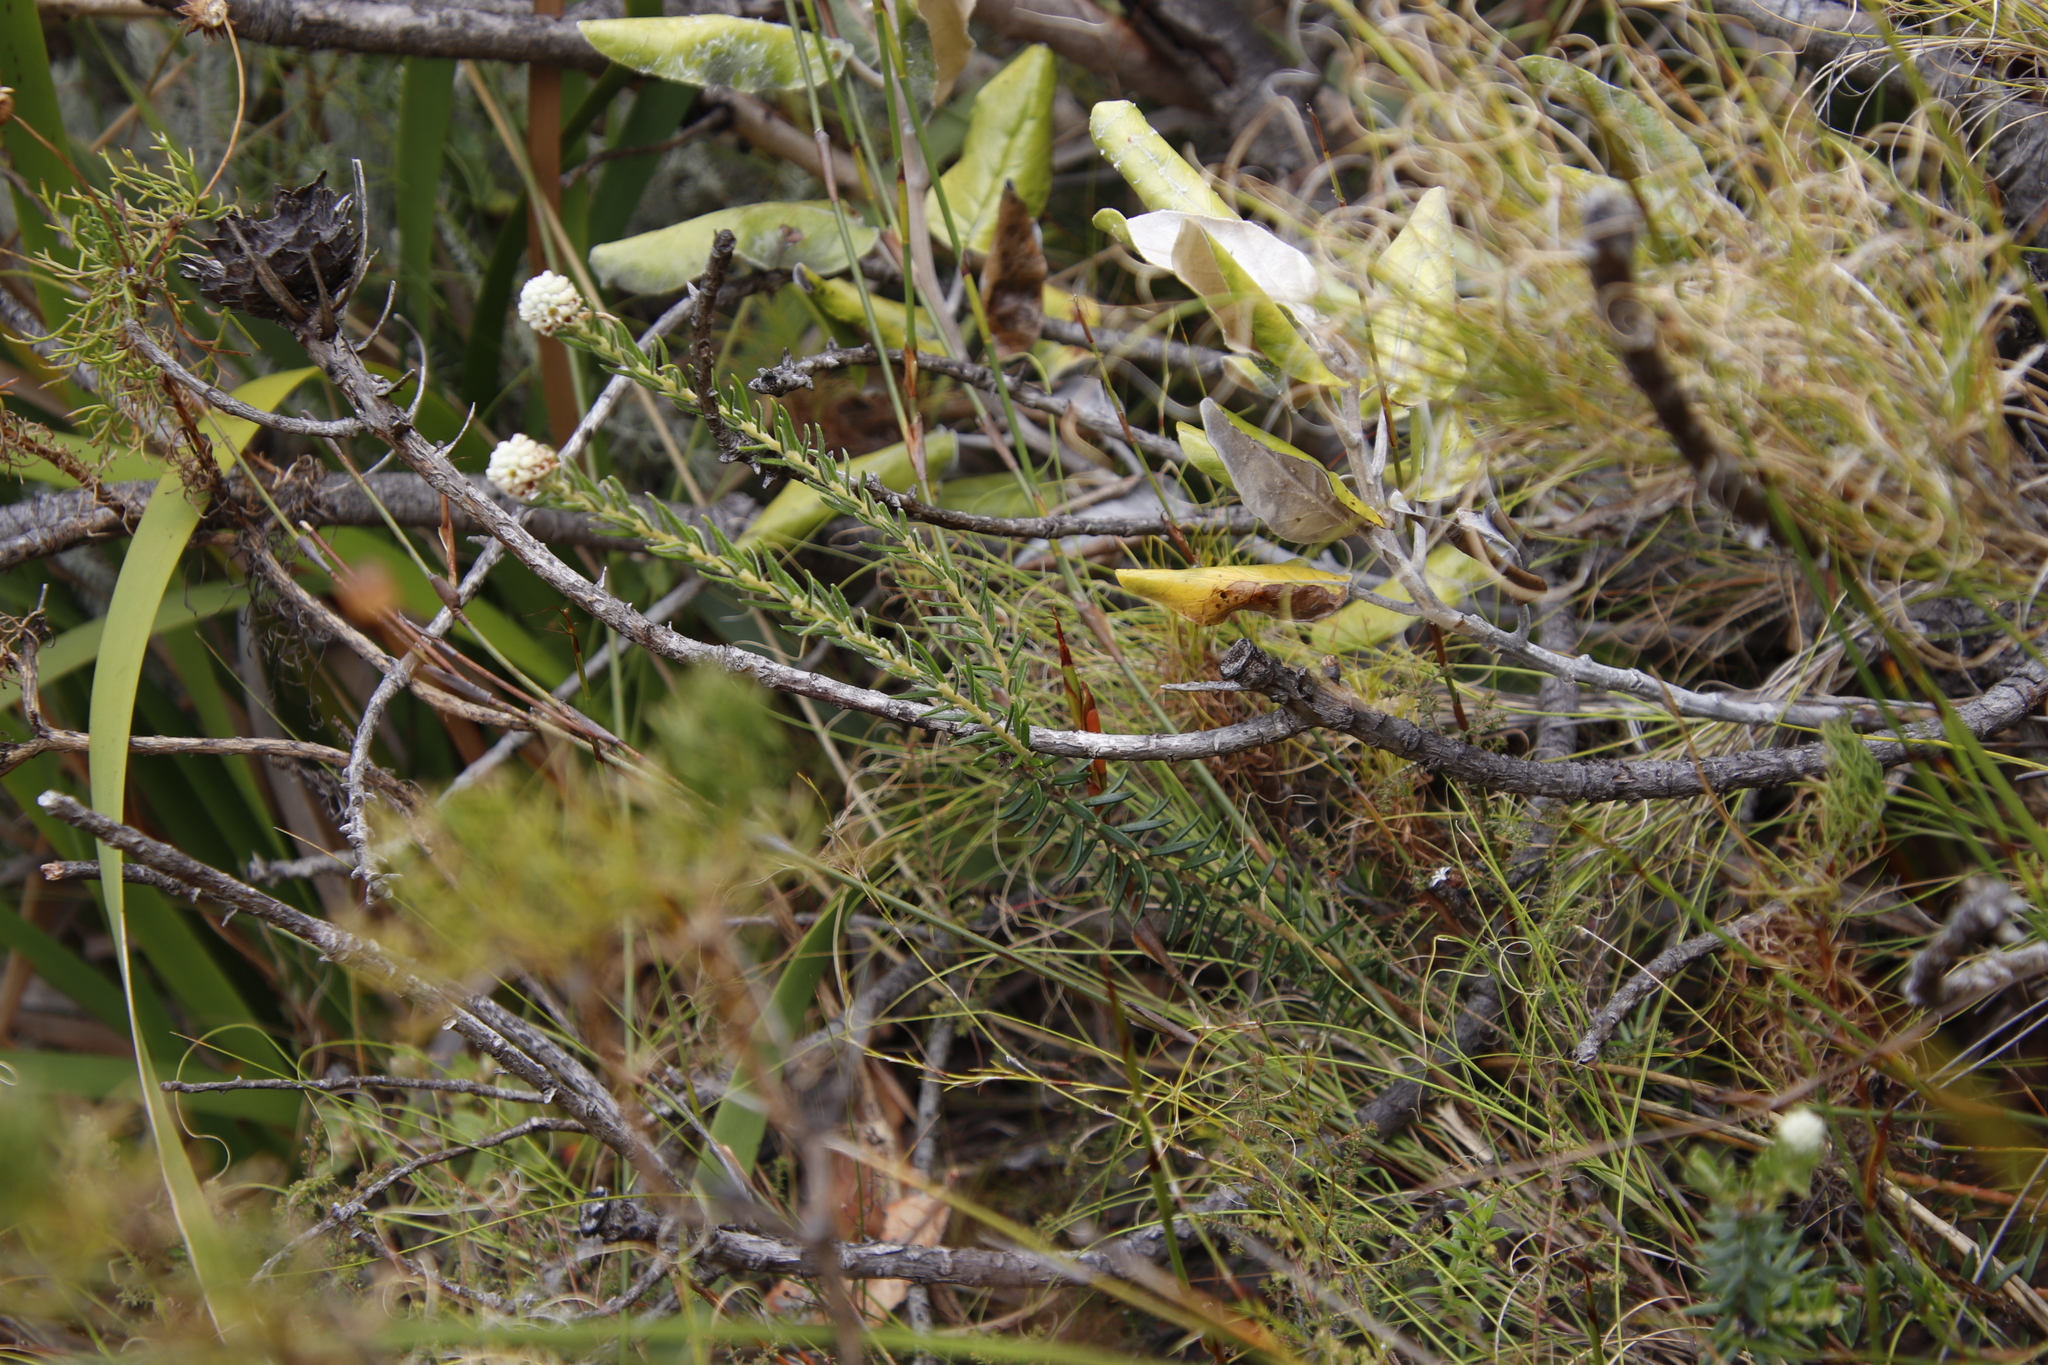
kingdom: Plantae
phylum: Tracheophyta
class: Magnoliopsida
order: Rosales
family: Rhamnaceae
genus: Phylica
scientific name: Phylica strigosa
